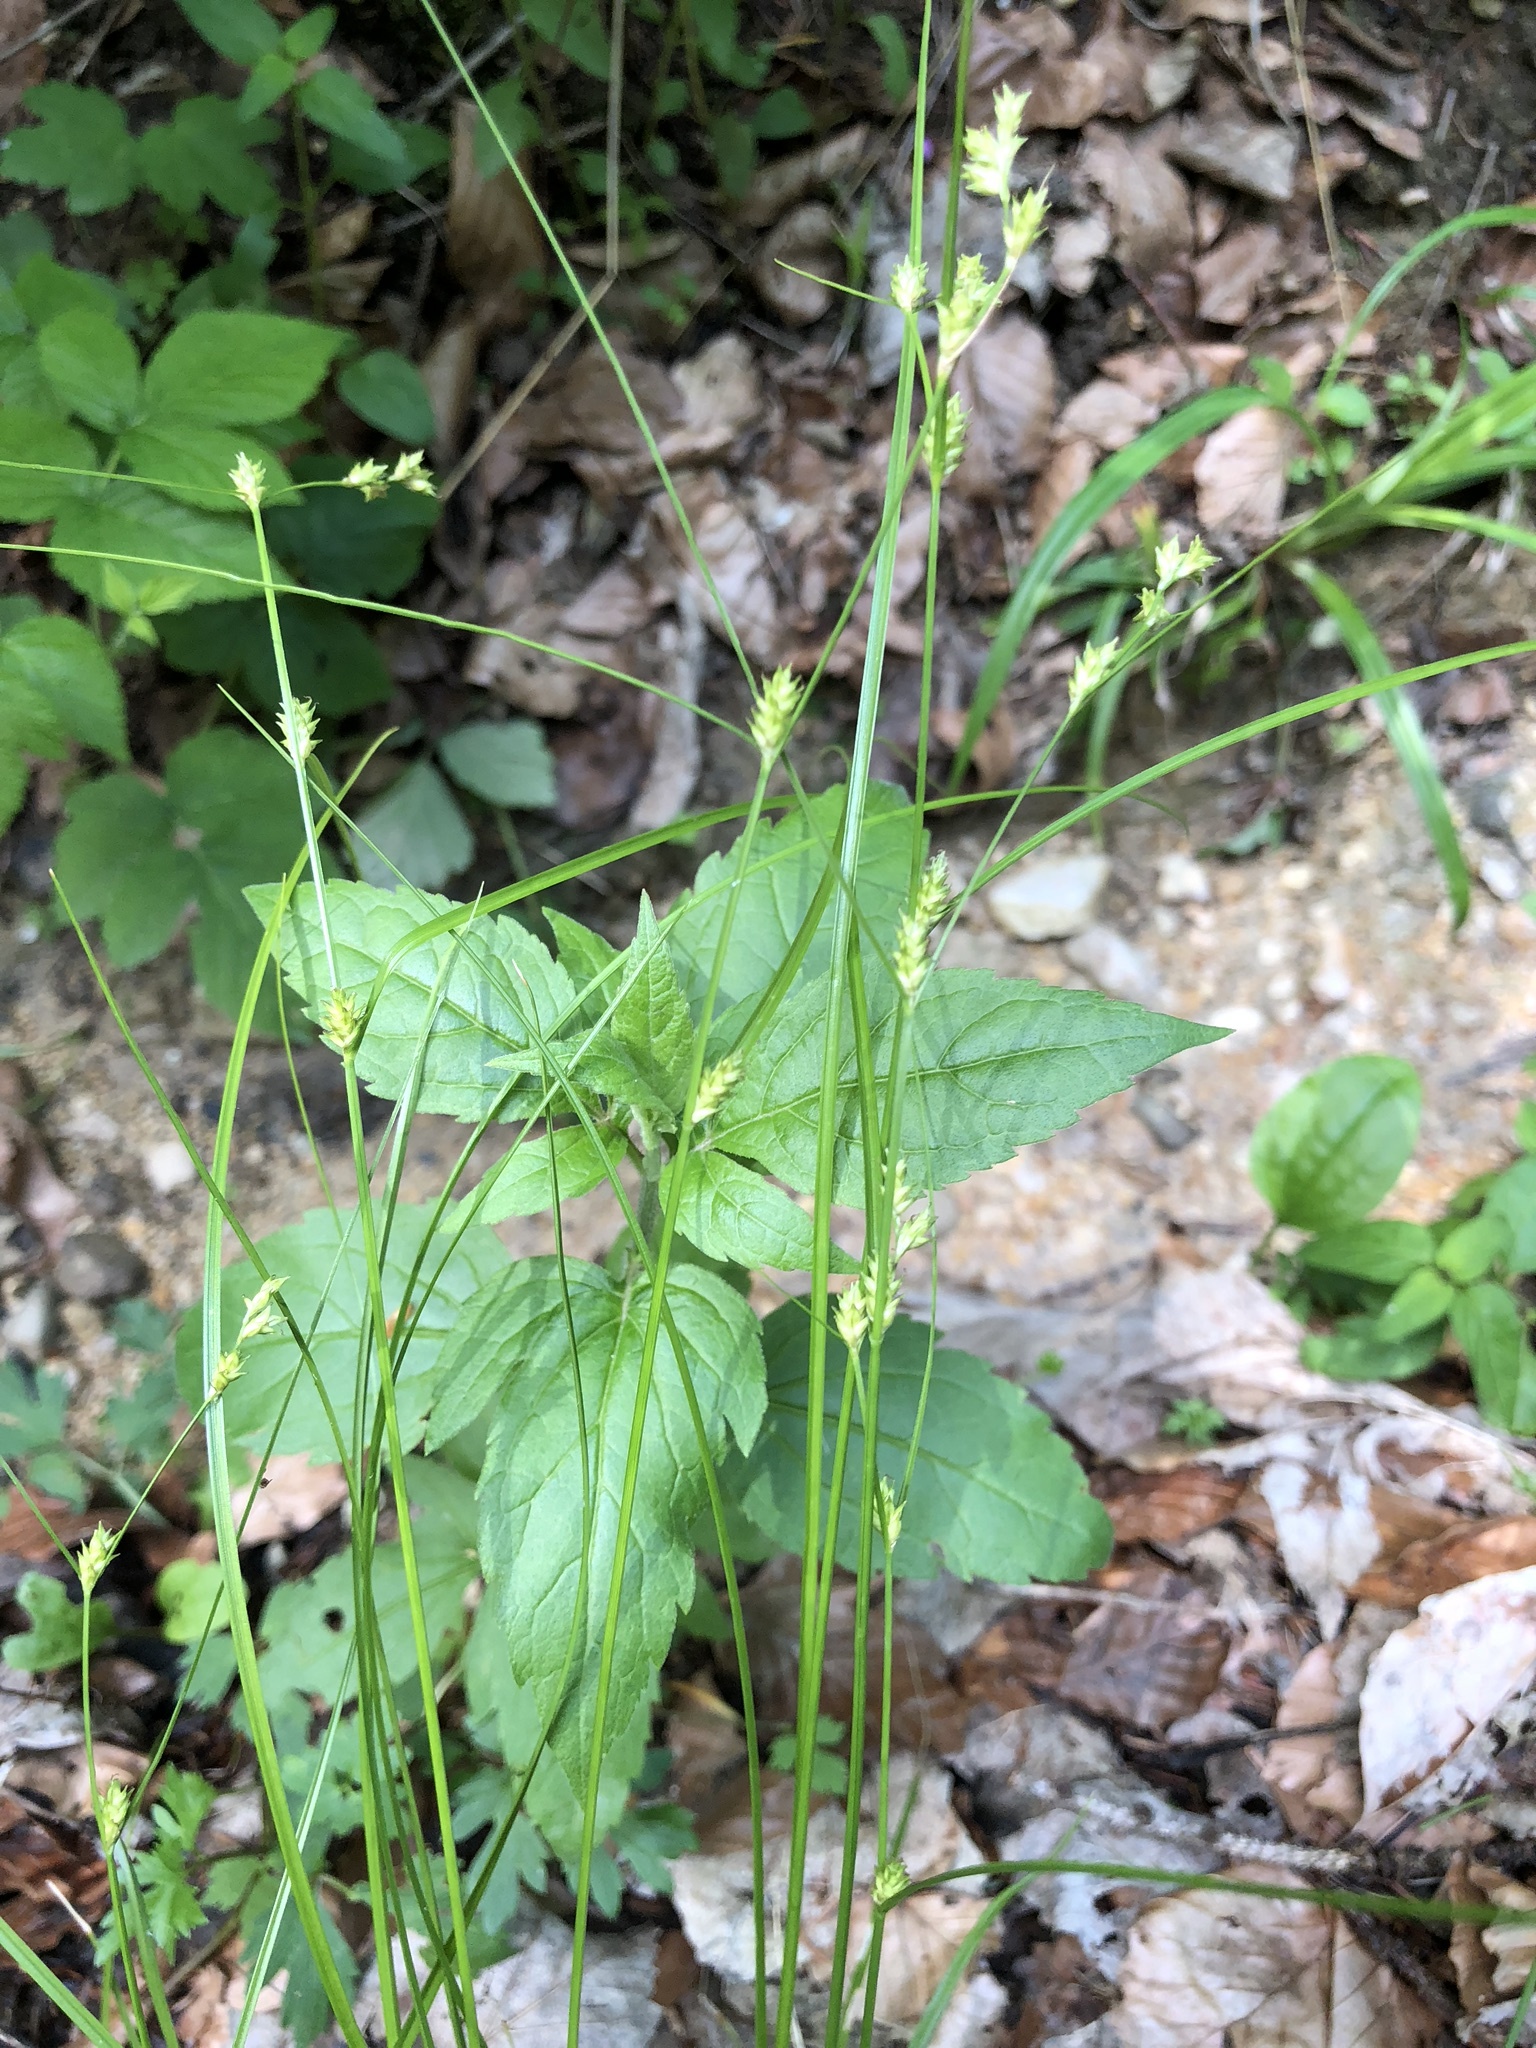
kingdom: Plantae
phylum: Tracheophyta
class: Liliopsida
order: Poales
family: Cyperaceae
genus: Carex
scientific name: Carex remota
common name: Remote sedge
